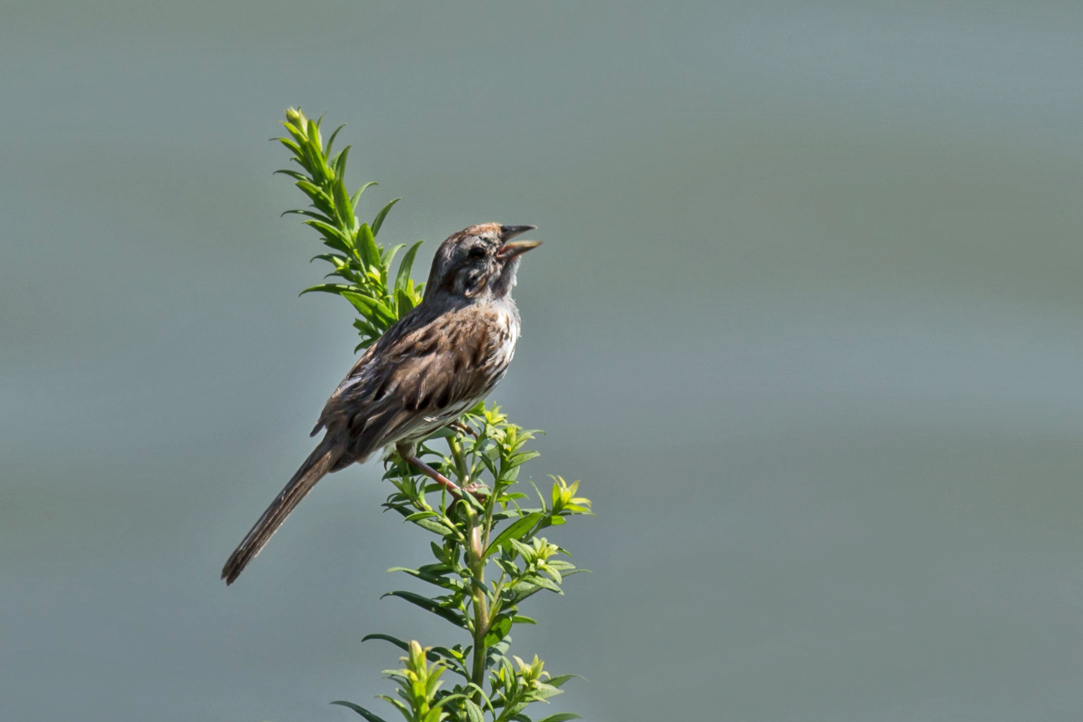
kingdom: Animalia
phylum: Chordata
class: Aves
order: Passeriformes
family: Passerellidae
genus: Melospiza
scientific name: Melospiza melodia
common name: Song sparrow
